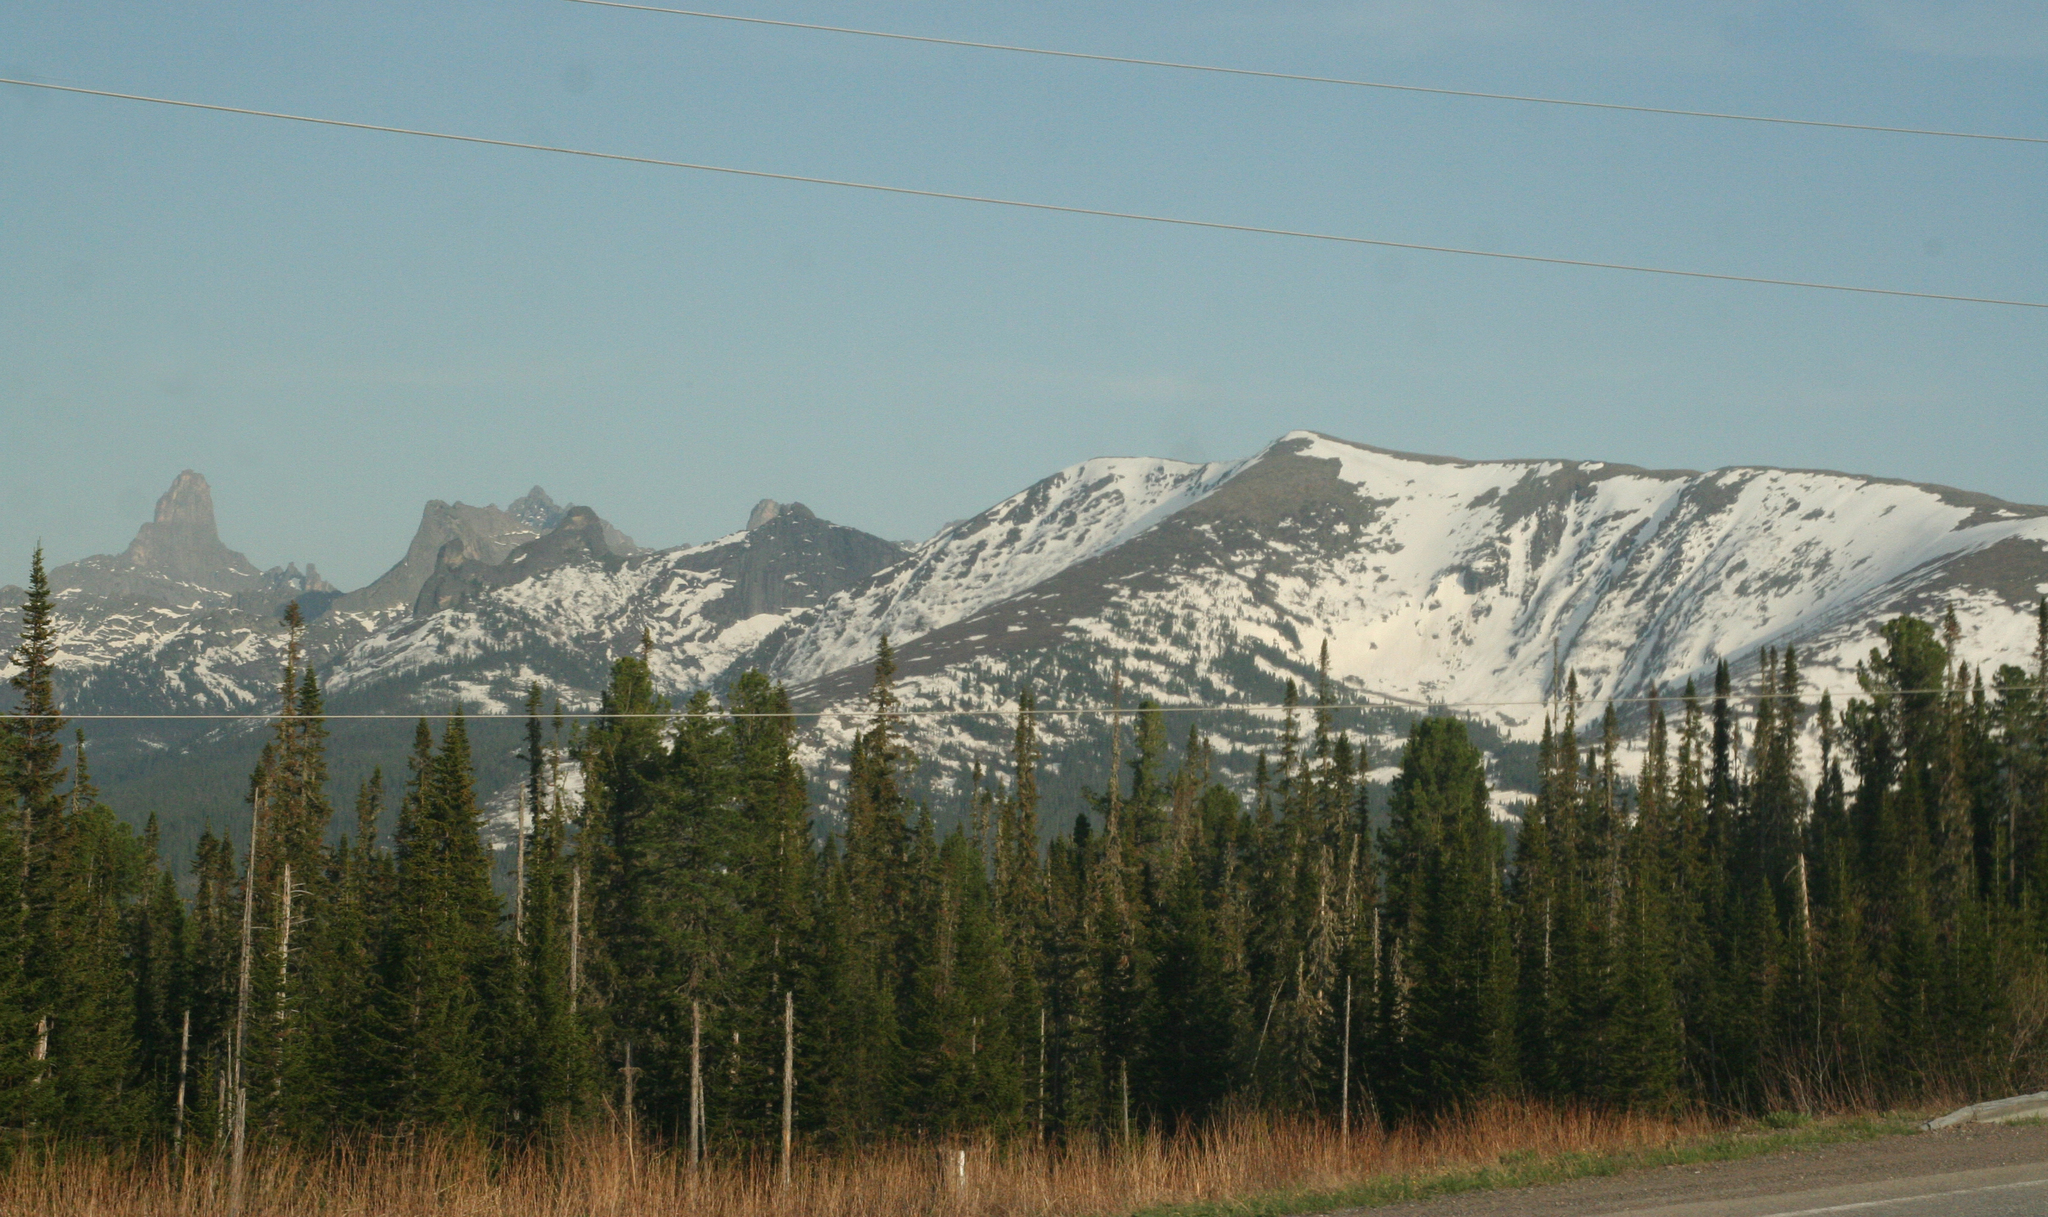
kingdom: Plantae
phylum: Tracheophyta
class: Pinopsida
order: Pinales
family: Pinaceae
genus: Abies
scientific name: Abies sibirica
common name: Siberian fir
